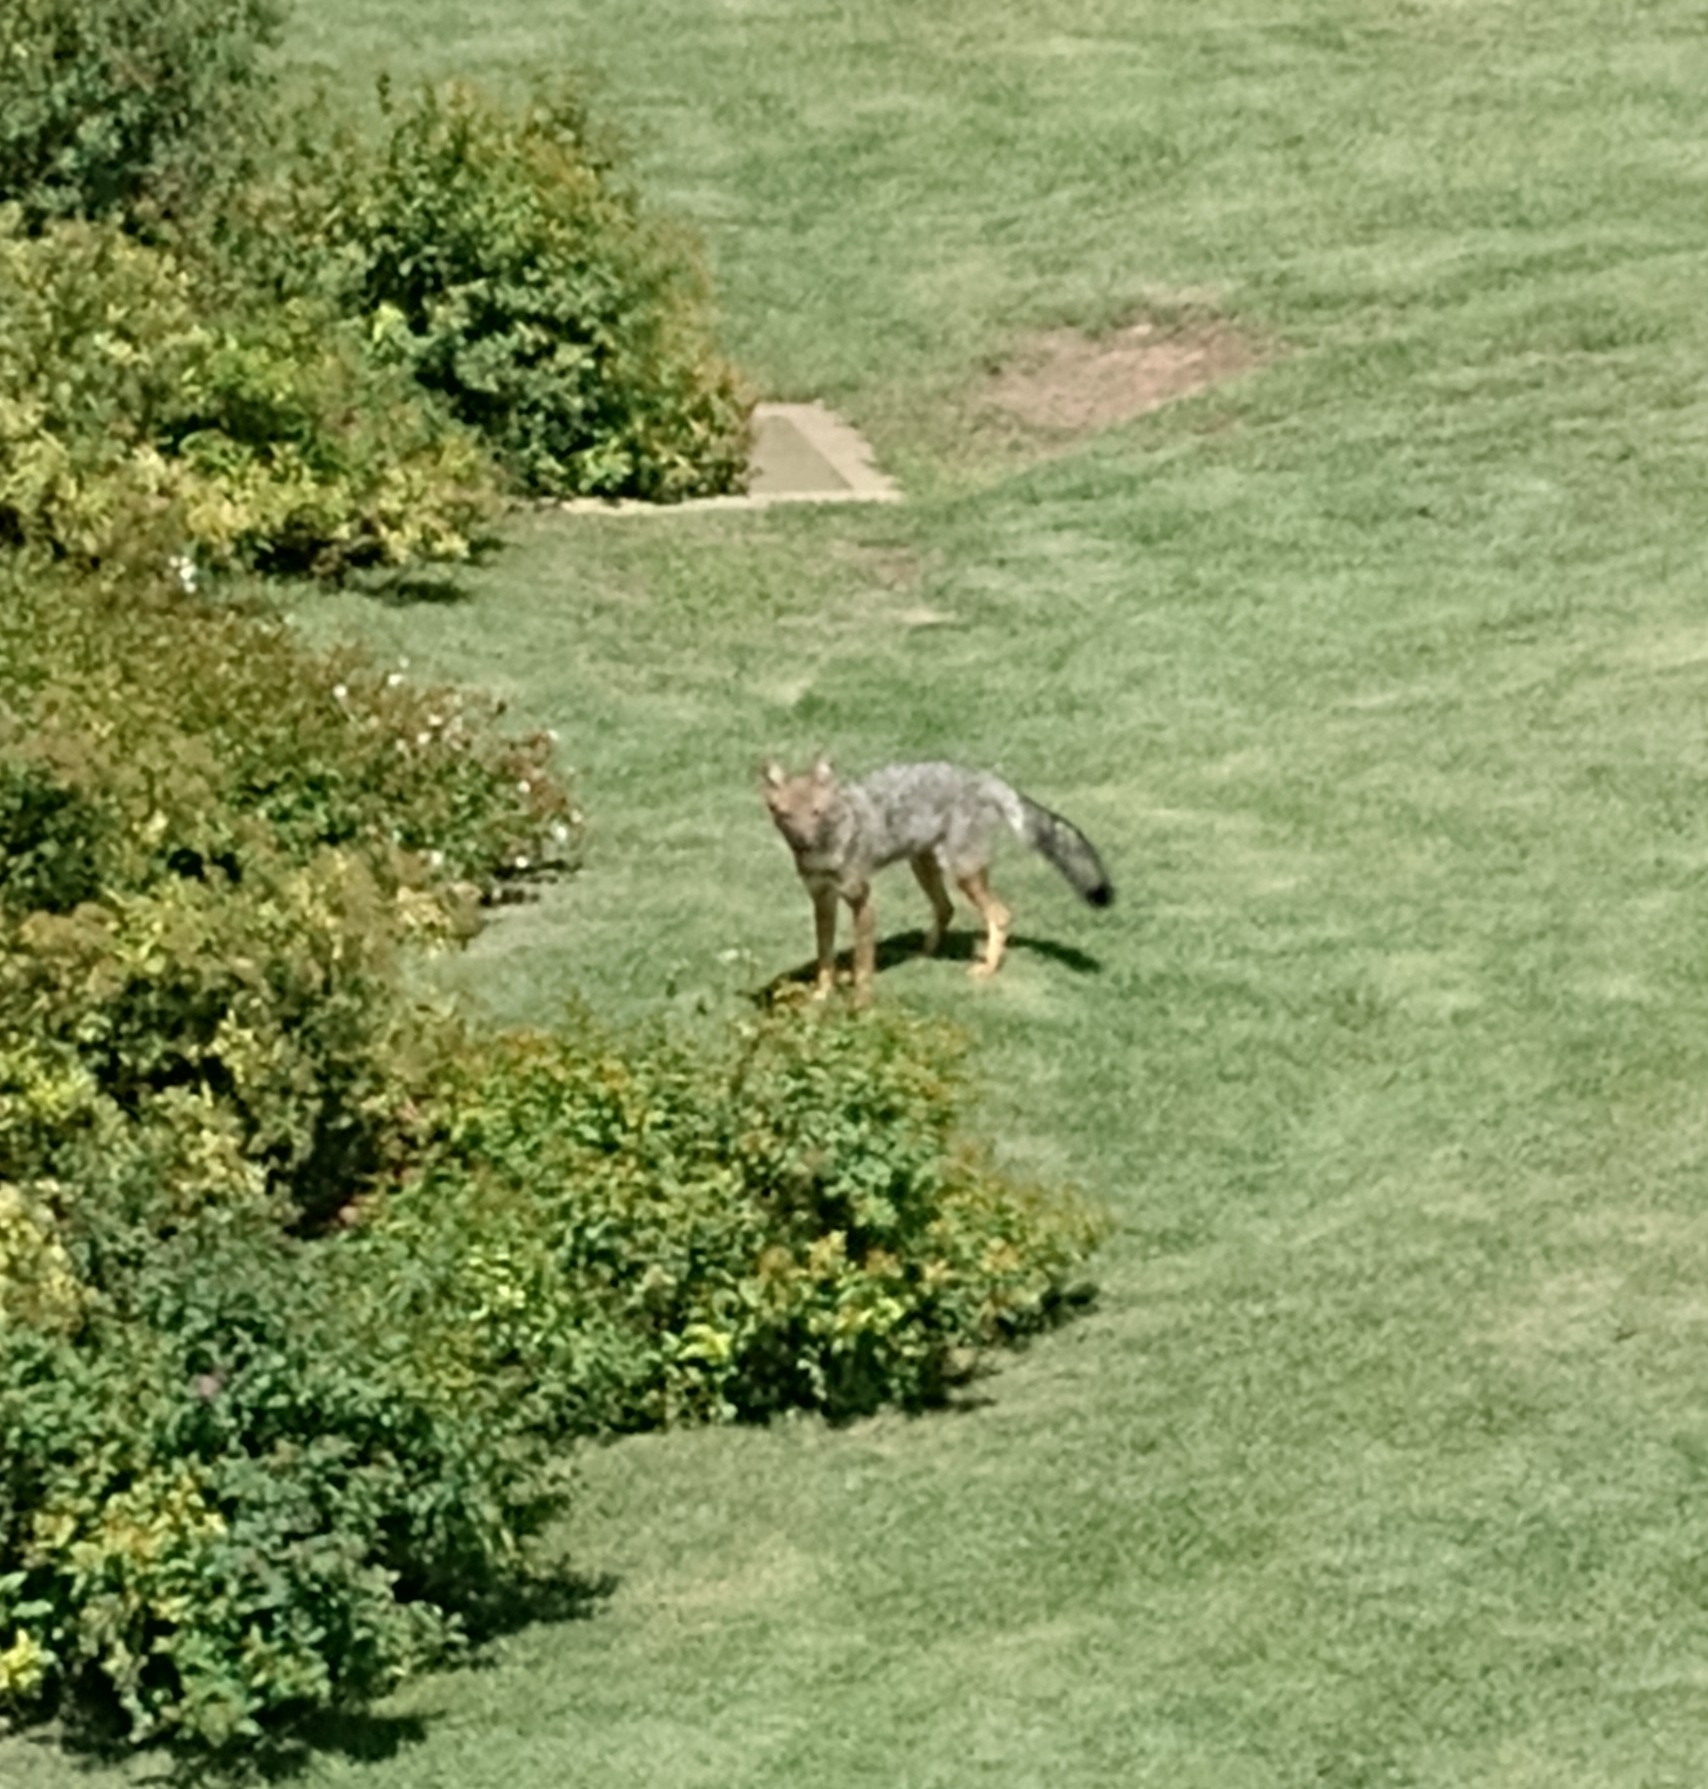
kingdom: Animalia
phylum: Chordata
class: Mammalia
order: Carnivora
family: Canidae
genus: Lycalopex
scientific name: Lycalopex gymnocercus
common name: Pampas fox
